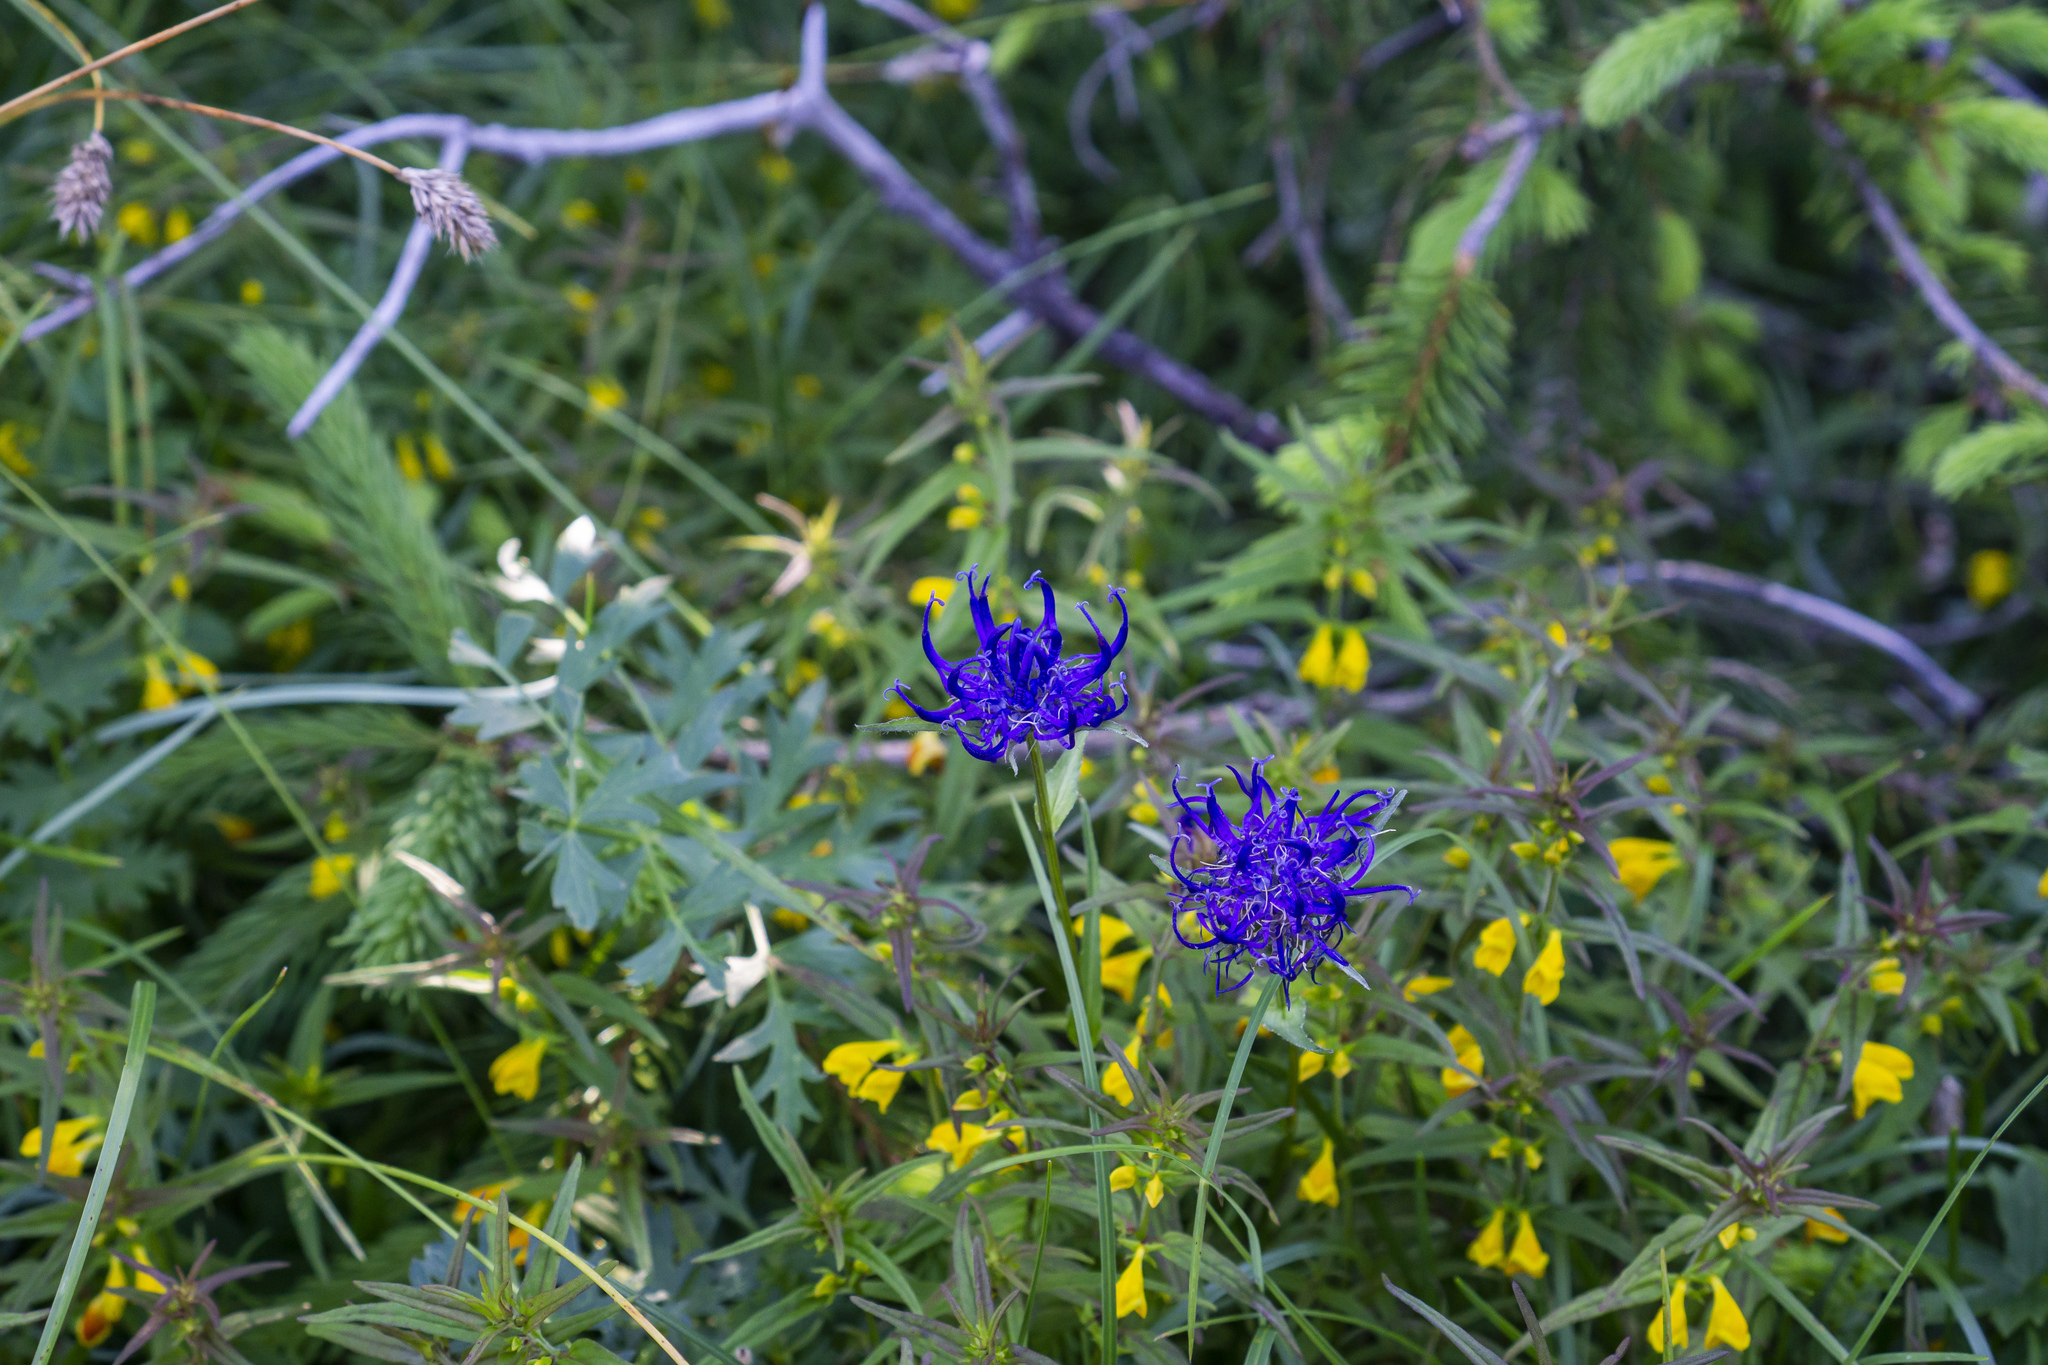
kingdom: Plantae
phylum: Tracheophyta
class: Magnoliopsida
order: Asterales
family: Campanulaceae
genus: Phyteuma
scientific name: Phyteuma orbiculare
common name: Round-headed rampion
